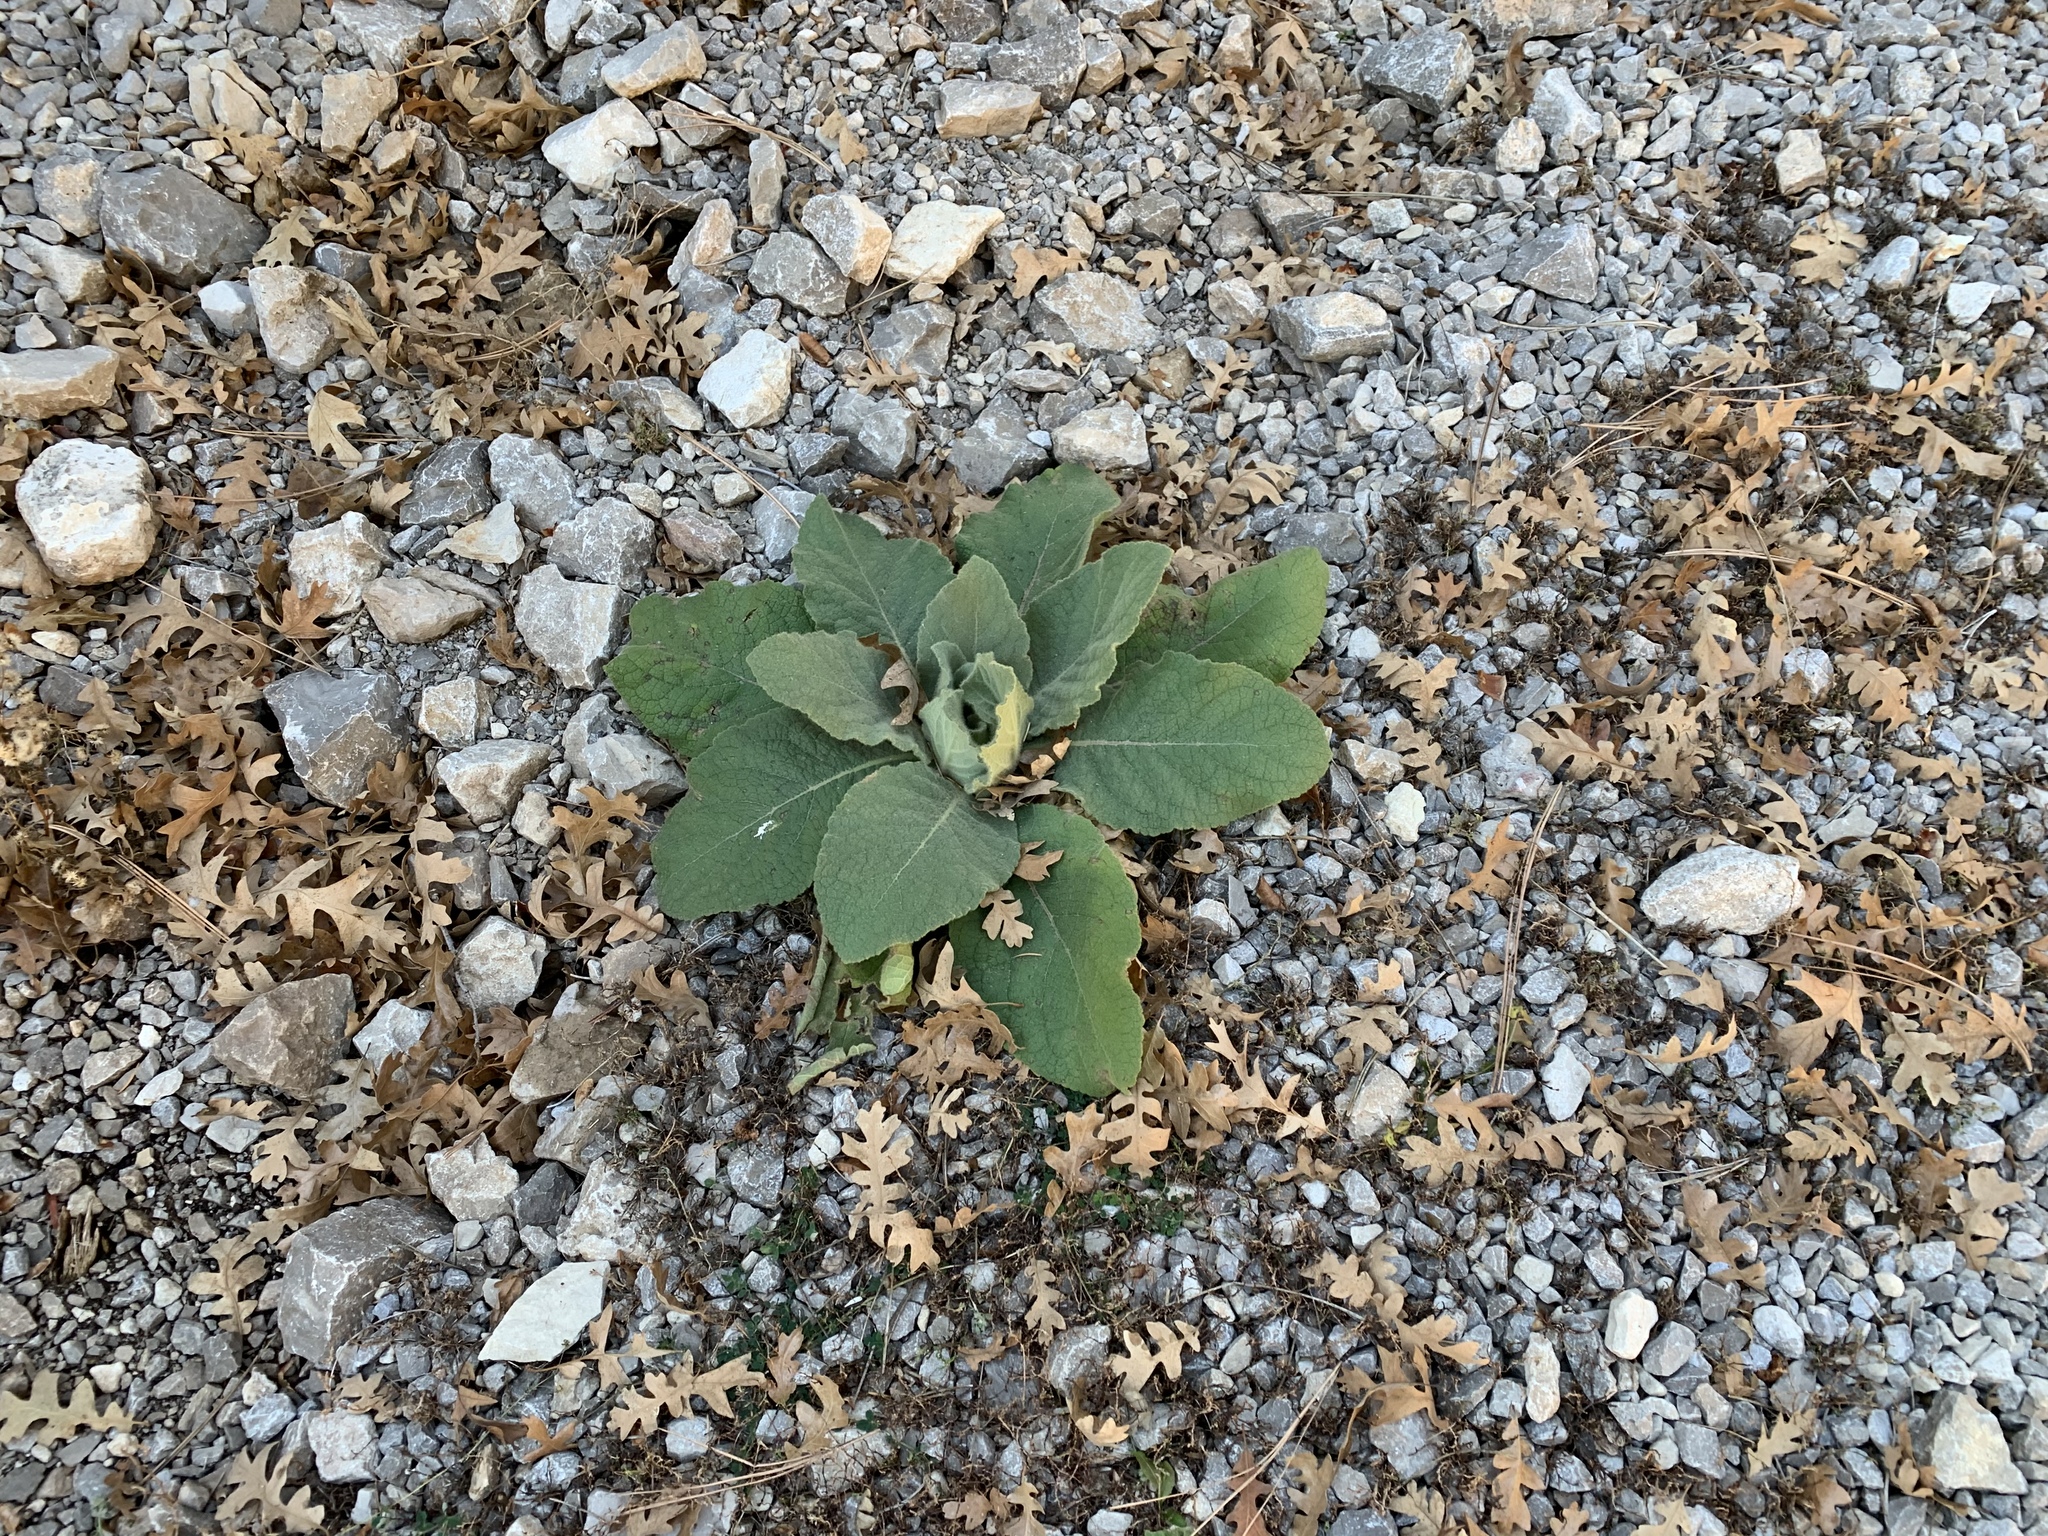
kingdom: Plantae
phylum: Tracheophyta
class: Magnoliopsida
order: Lamiales
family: Scrophulariaceae
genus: Verbascum
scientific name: Verbascum thapsus
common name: Common mullein
